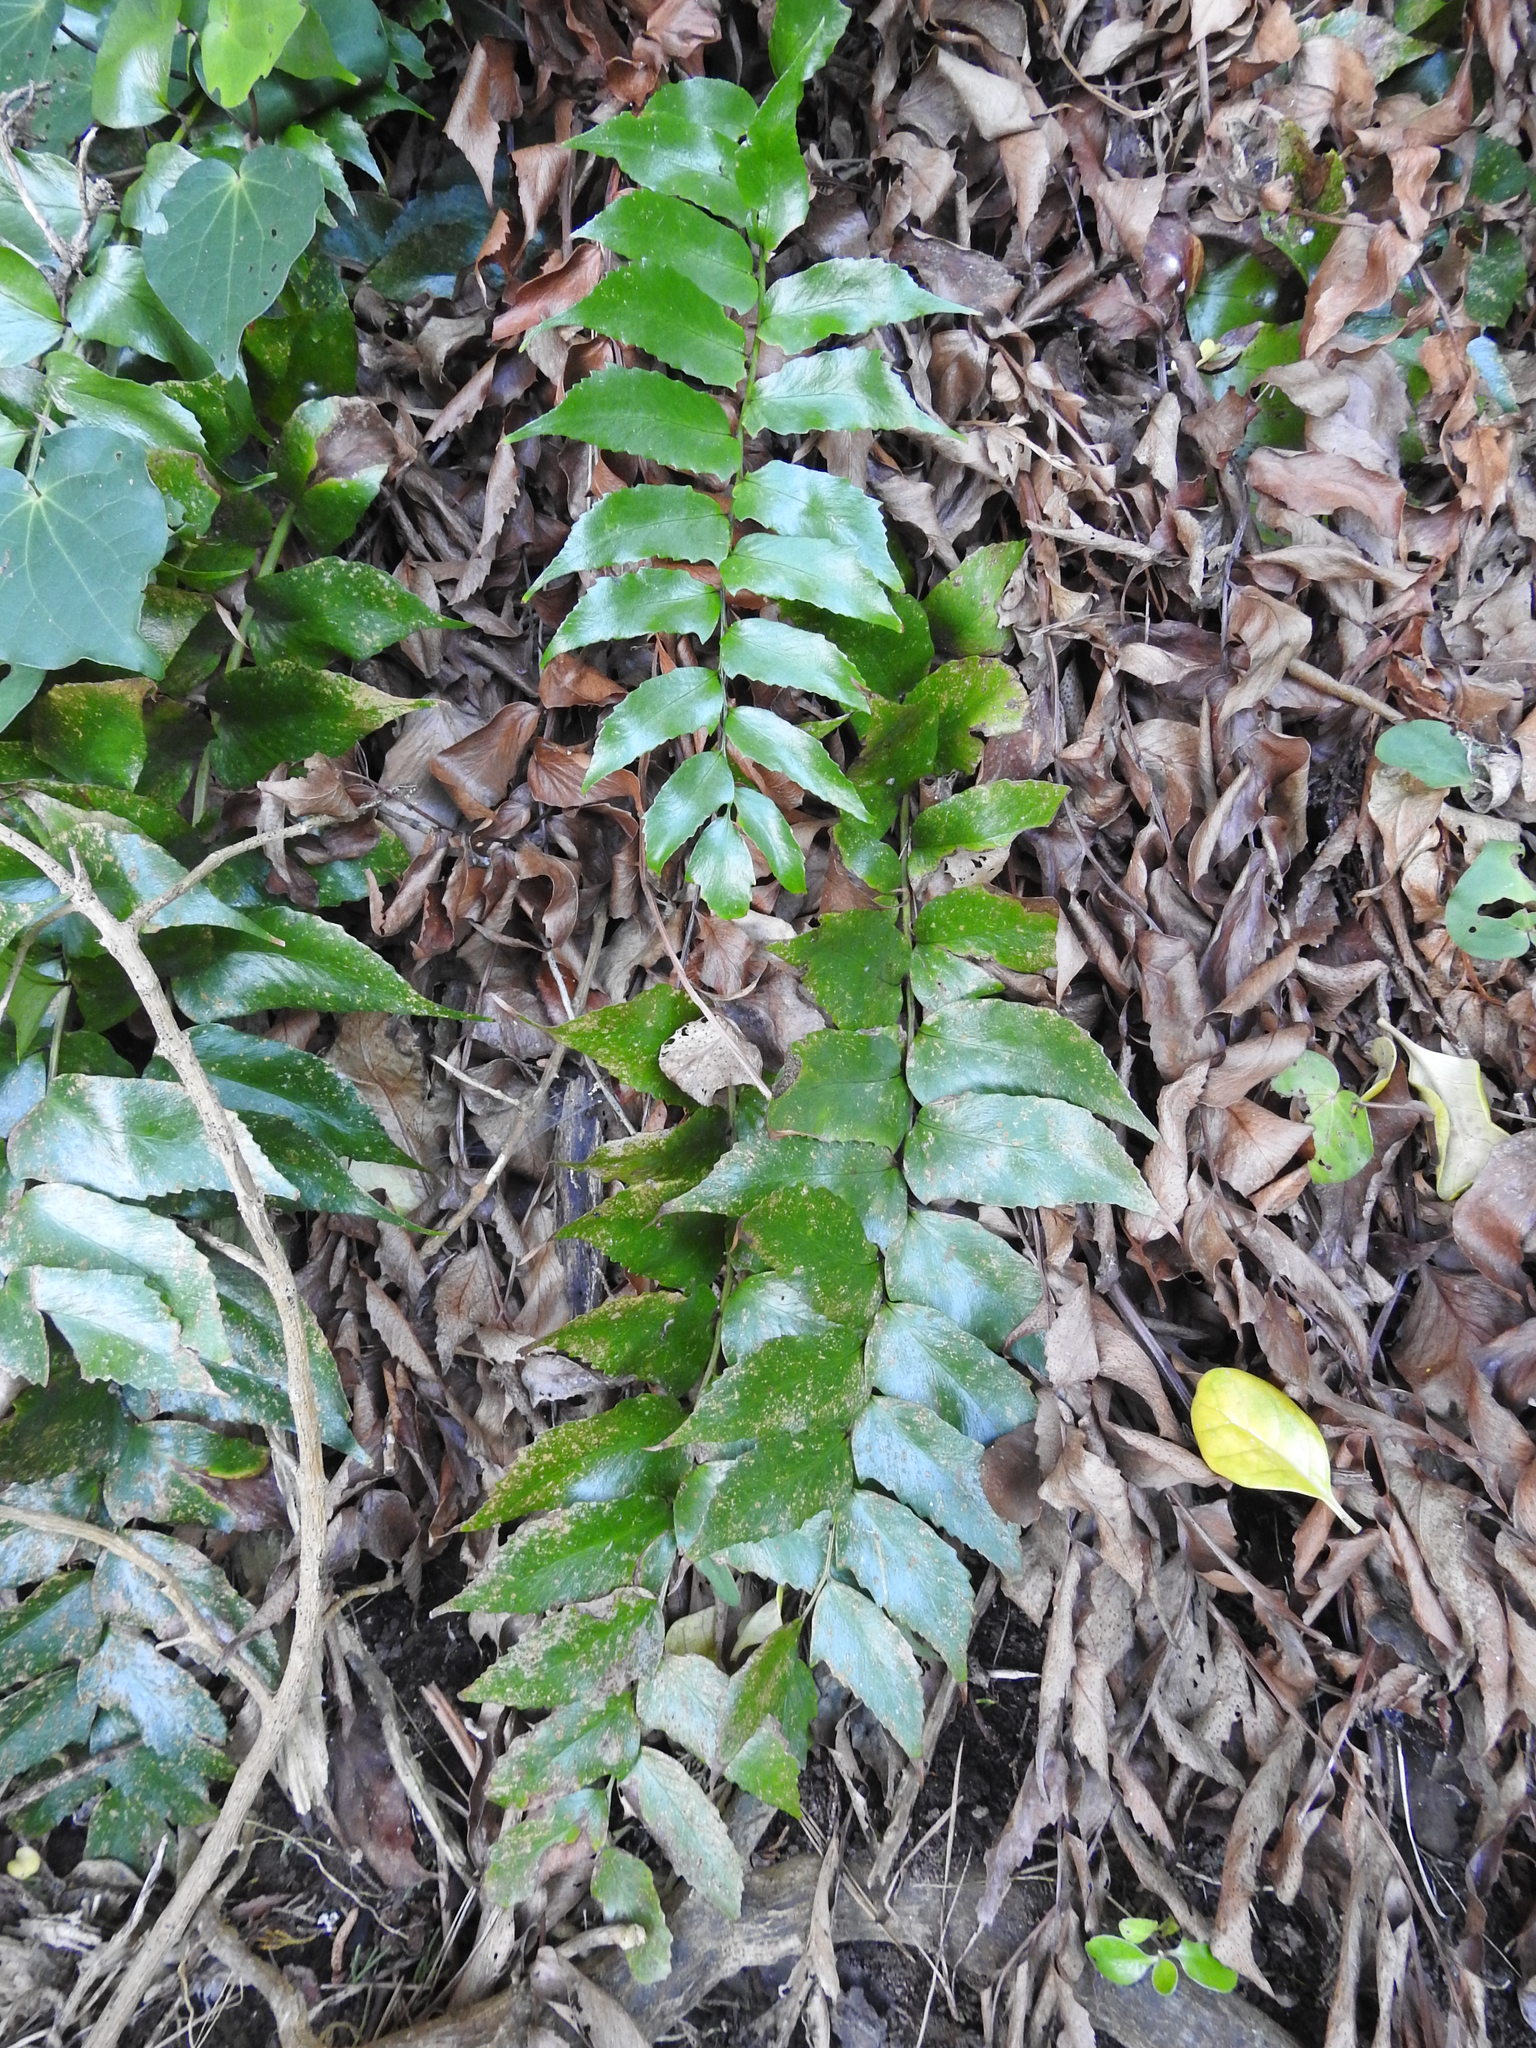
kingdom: Plantae
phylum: Tracheophyta
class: Polypodiopsida
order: Polypodiales
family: Dryopteridaceae
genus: Cyrtomium
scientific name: Cyrtomium falcatum
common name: House holly-fern
